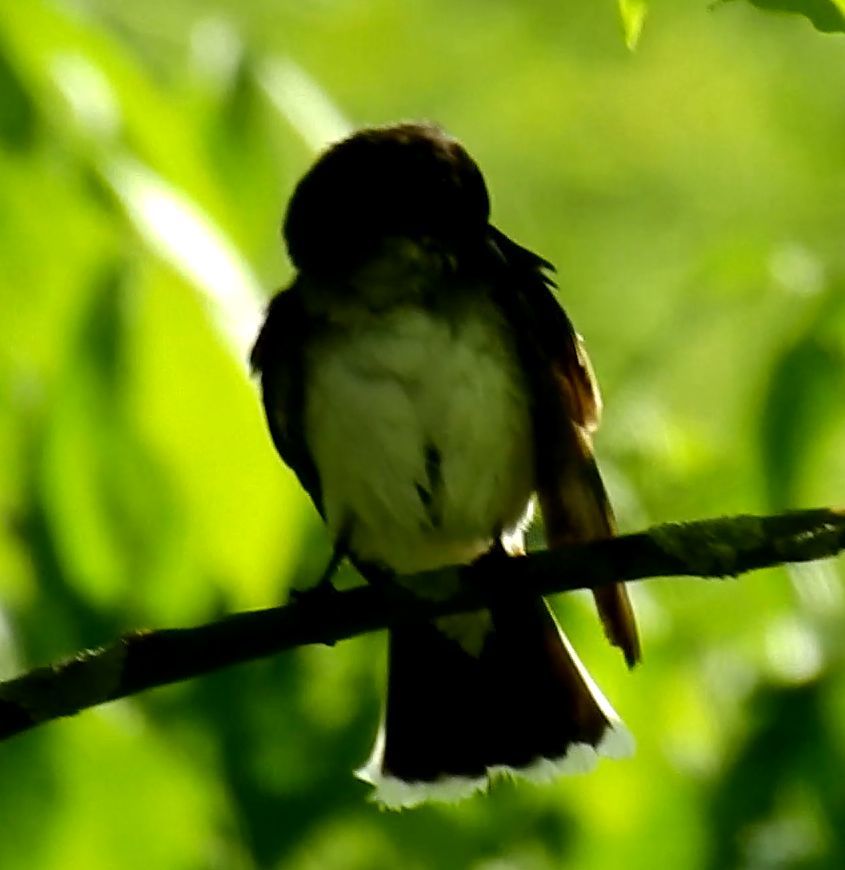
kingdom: Animalia
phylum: Chordata
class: Aves
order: Passeriformes
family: Tyrannidae
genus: Tyrannus
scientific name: Tyrannus tyrannus
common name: Eastern kingbird
